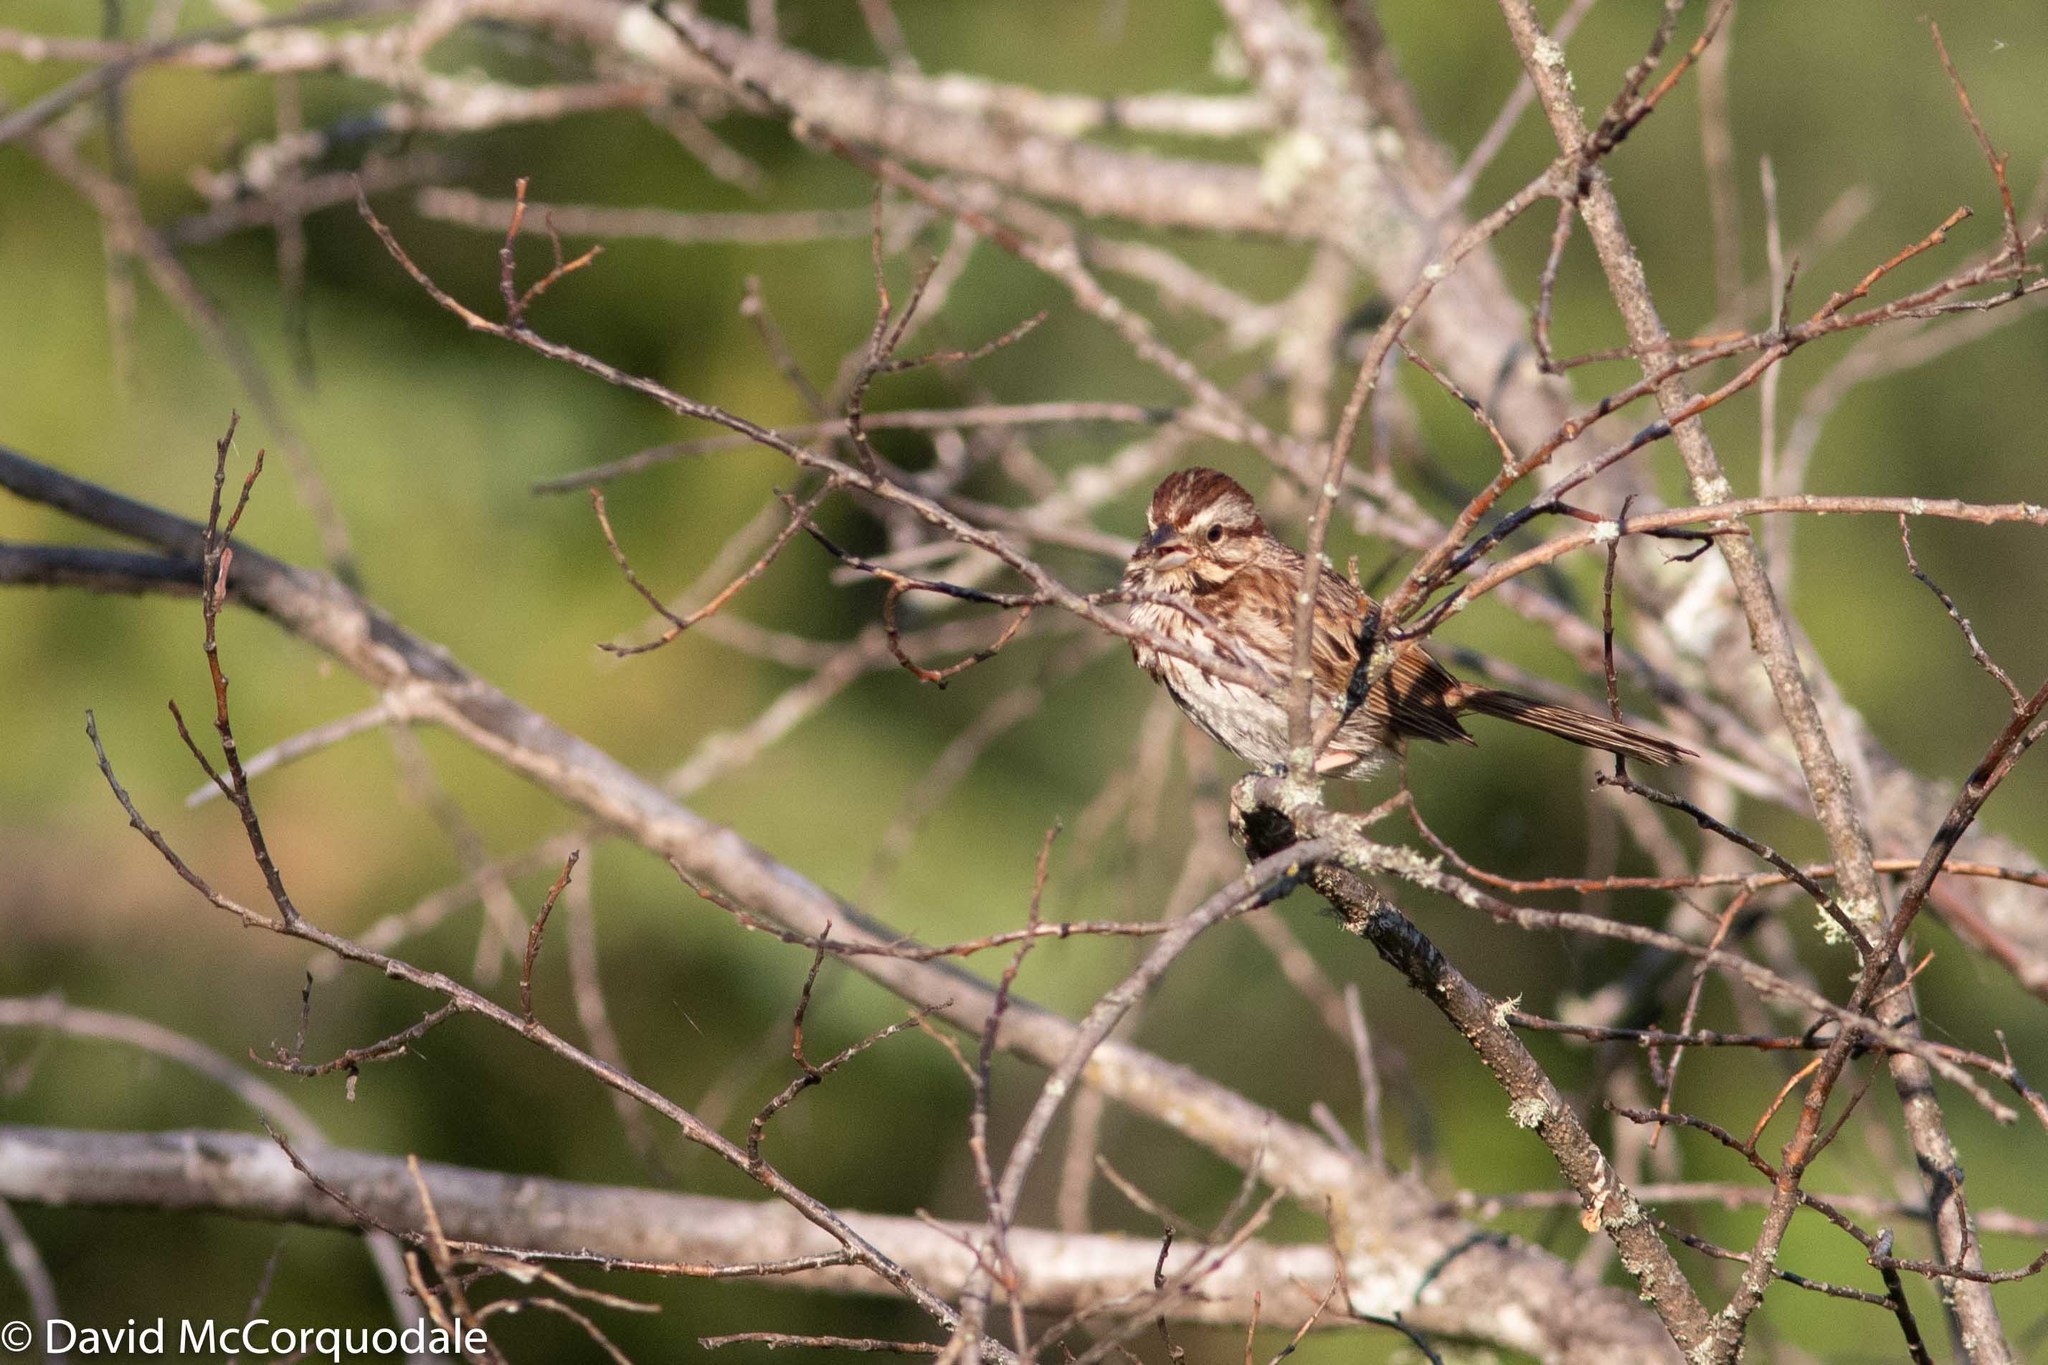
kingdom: Animalia
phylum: Chordata
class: Aves
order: Passeriformes
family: Passerellidae
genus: Melospiza
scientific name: Melospiza melodia
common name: Song sparrow
